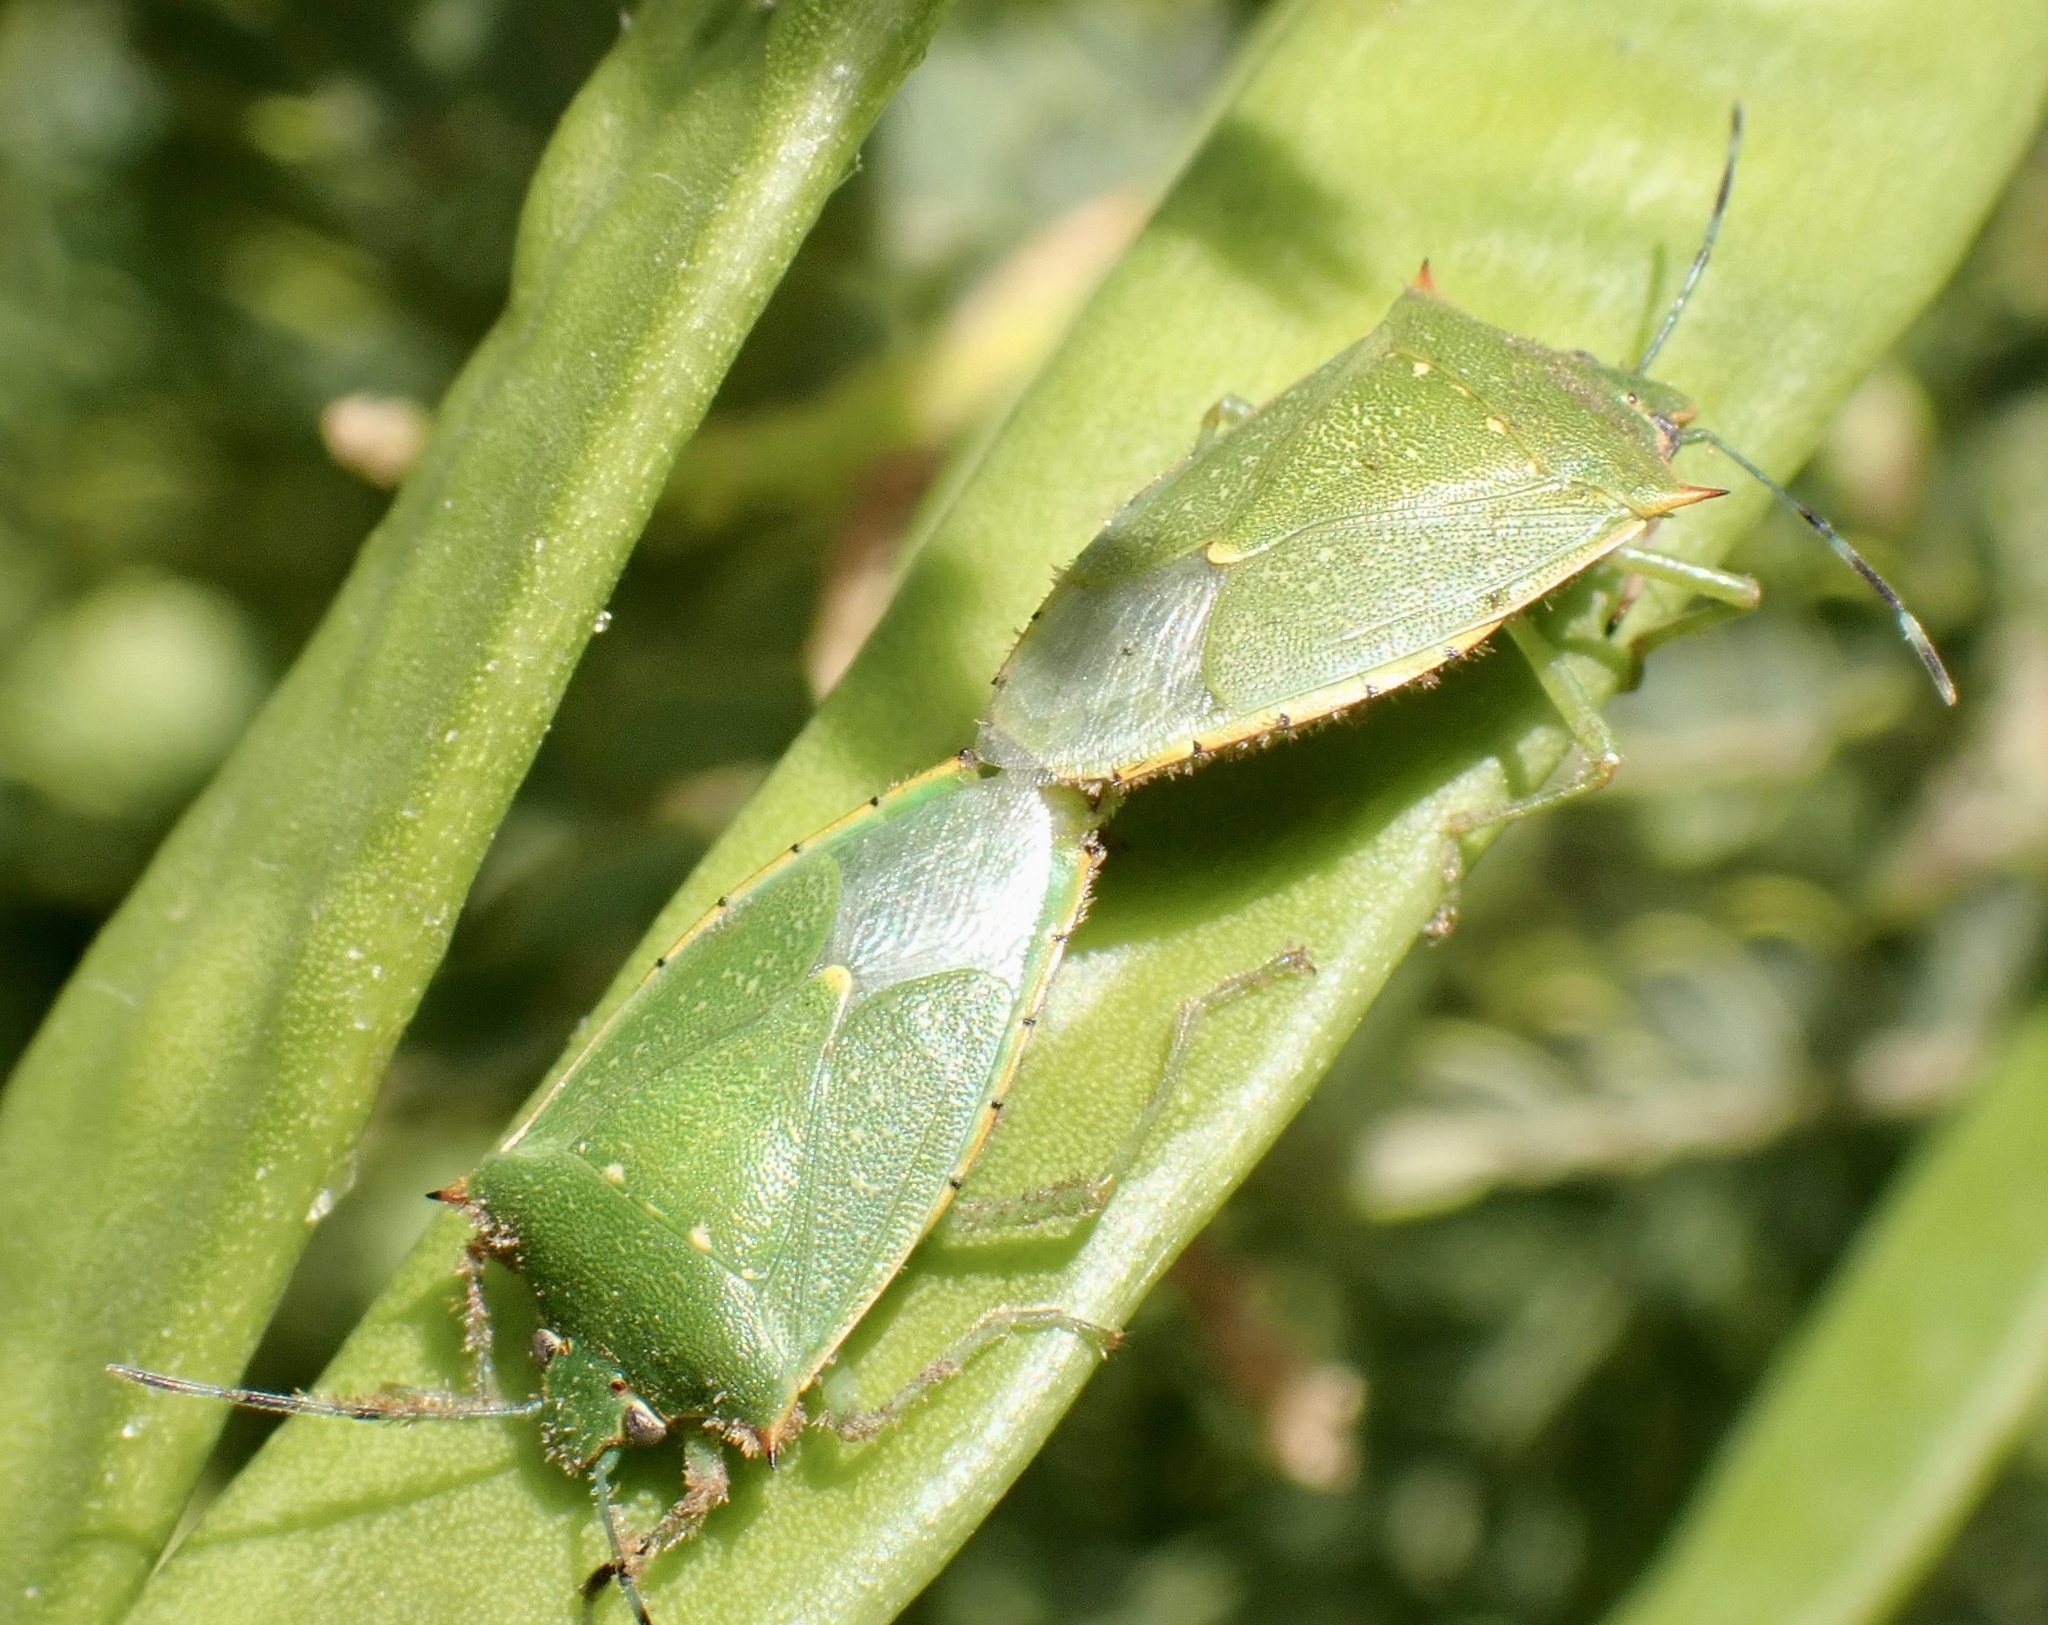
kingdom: Animalia
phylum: Arthropoda
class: Insecta
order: Hemiptera
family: Pentatomidae
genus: Chinavia
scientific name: Chinavia
